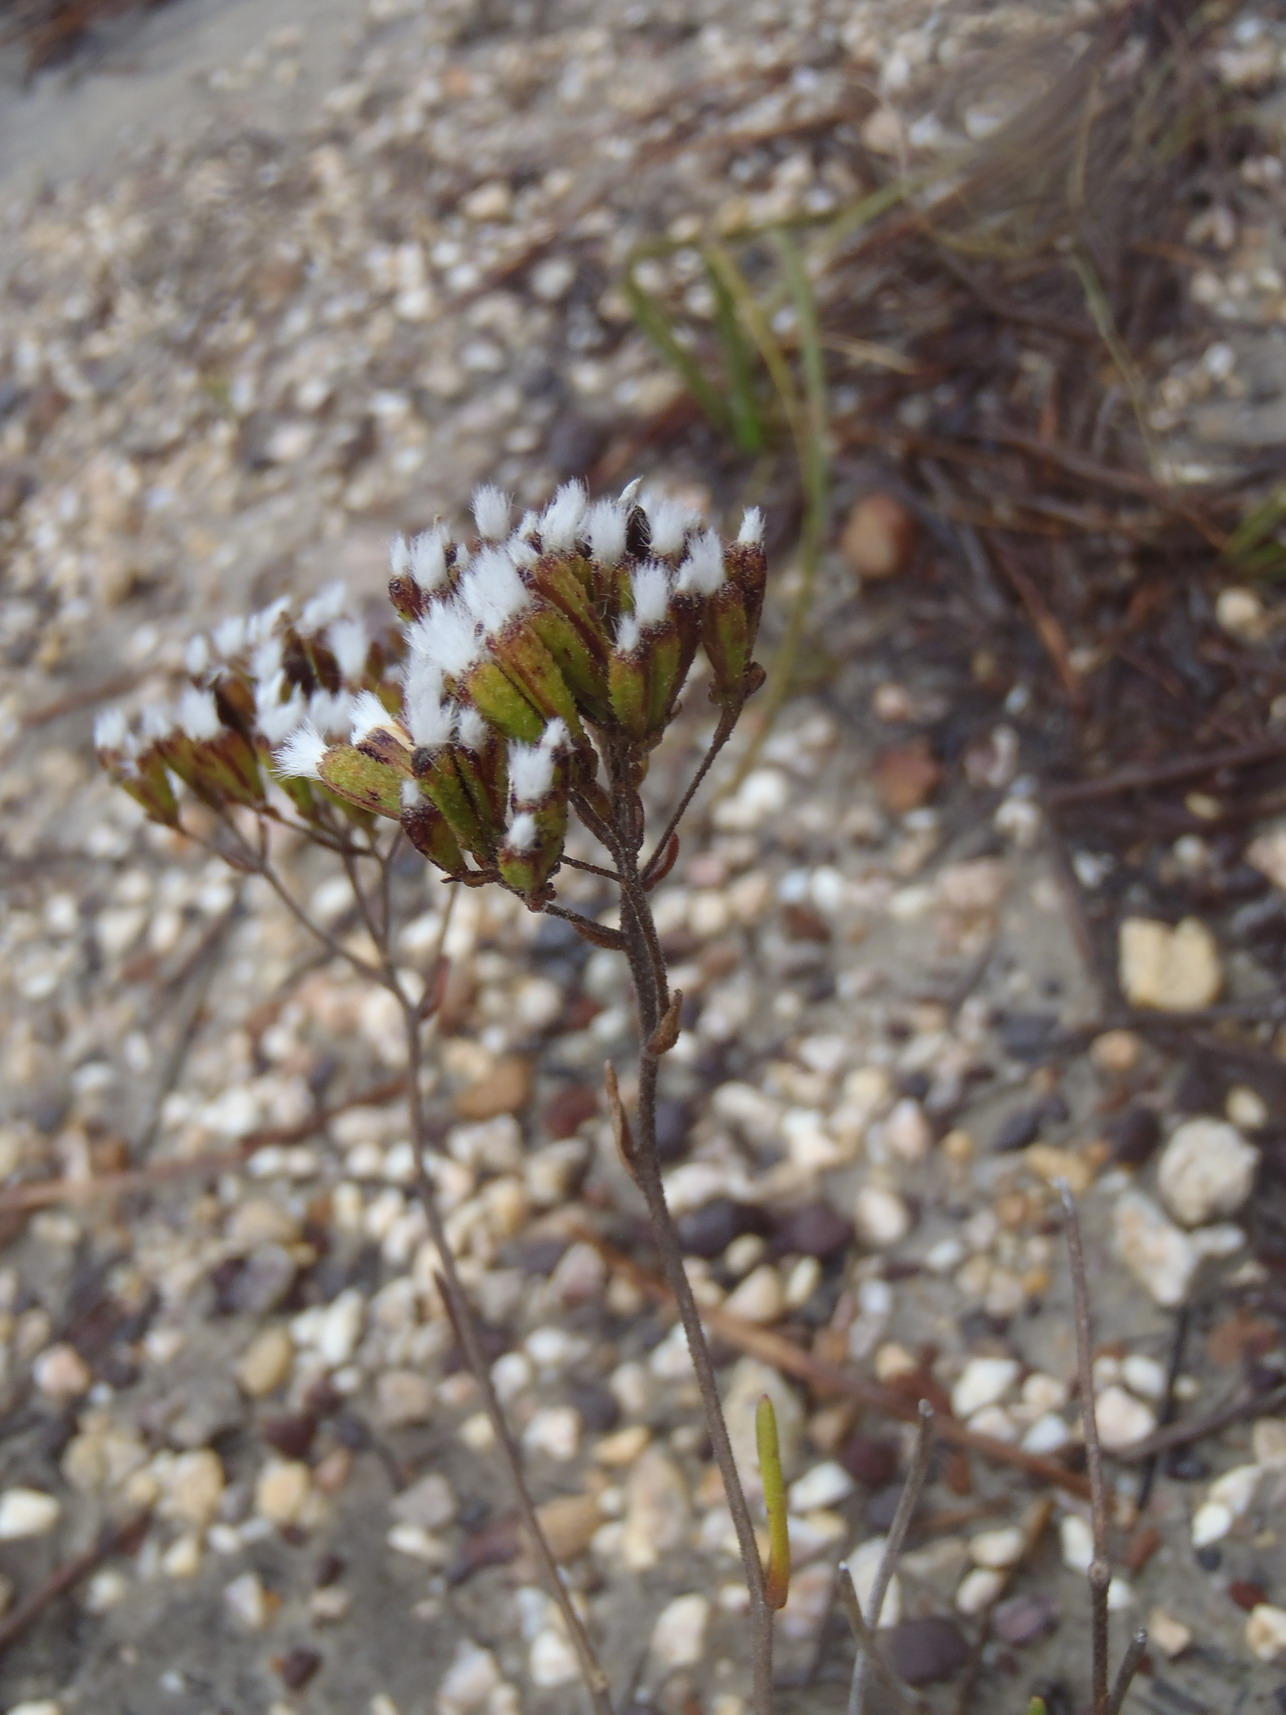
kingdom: Plantae
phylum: Tracheophyta
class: Magnoliopsida
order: Asterales
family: Asteraceae
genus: Corymbium
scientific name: Corymbium africanum
